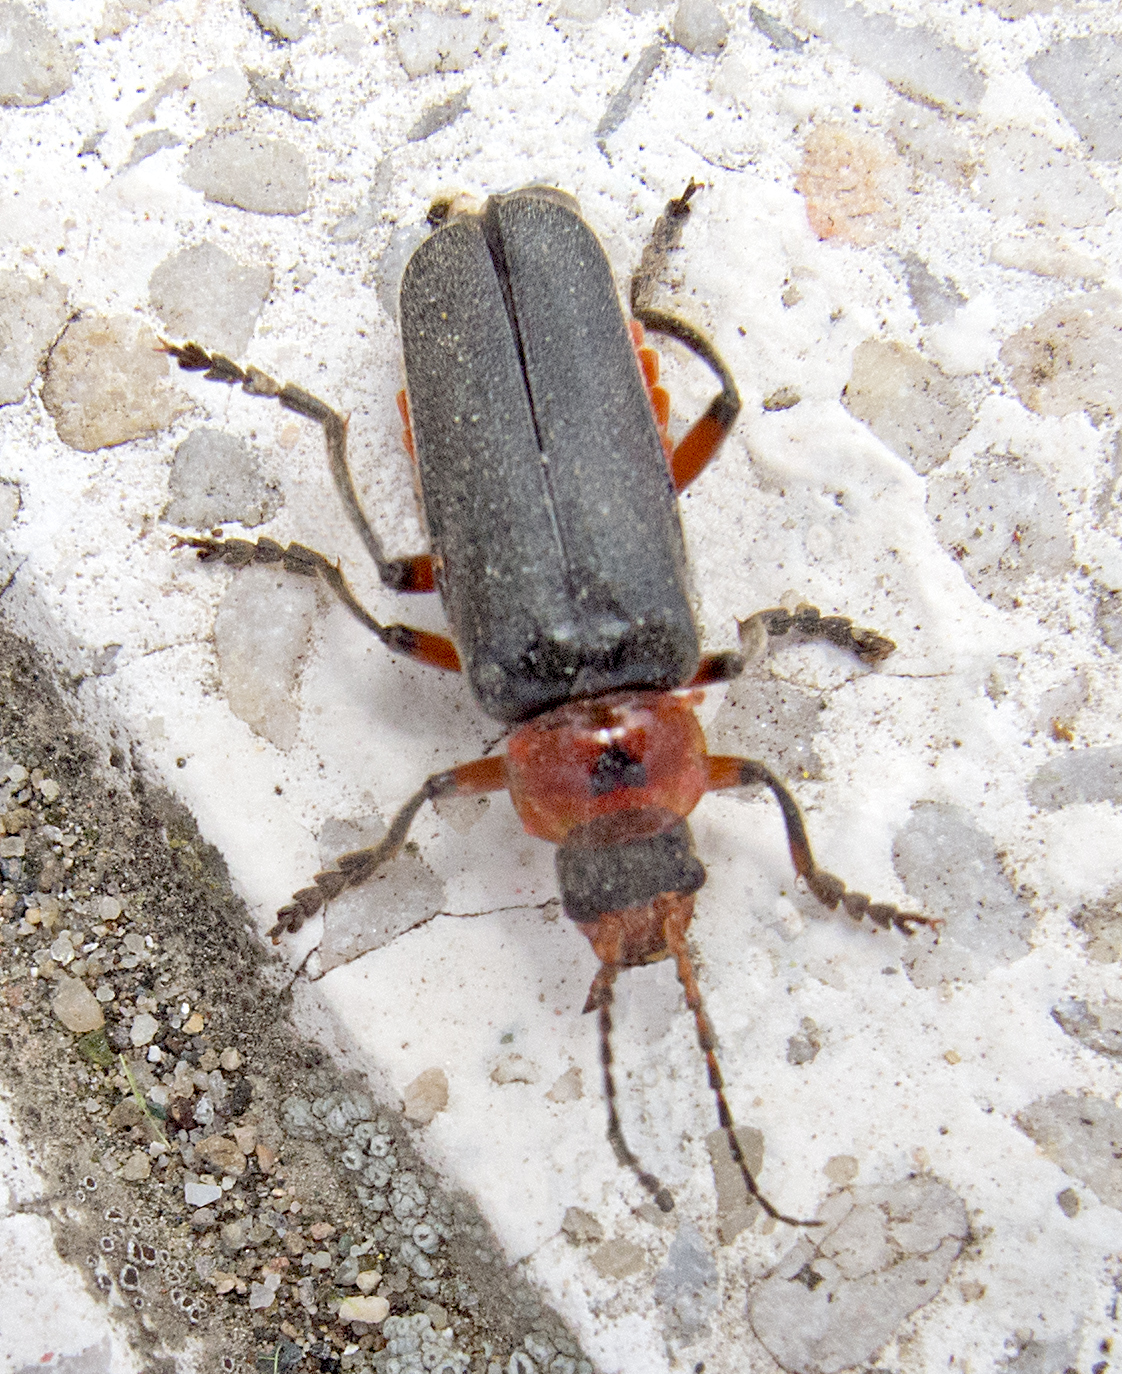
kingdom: Animalia
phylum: Arthropoda
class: Insecta
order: Coleoptera
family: Cantharidae
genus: Cantharis
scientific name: Cantharis rustica
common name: Soldier beetle
